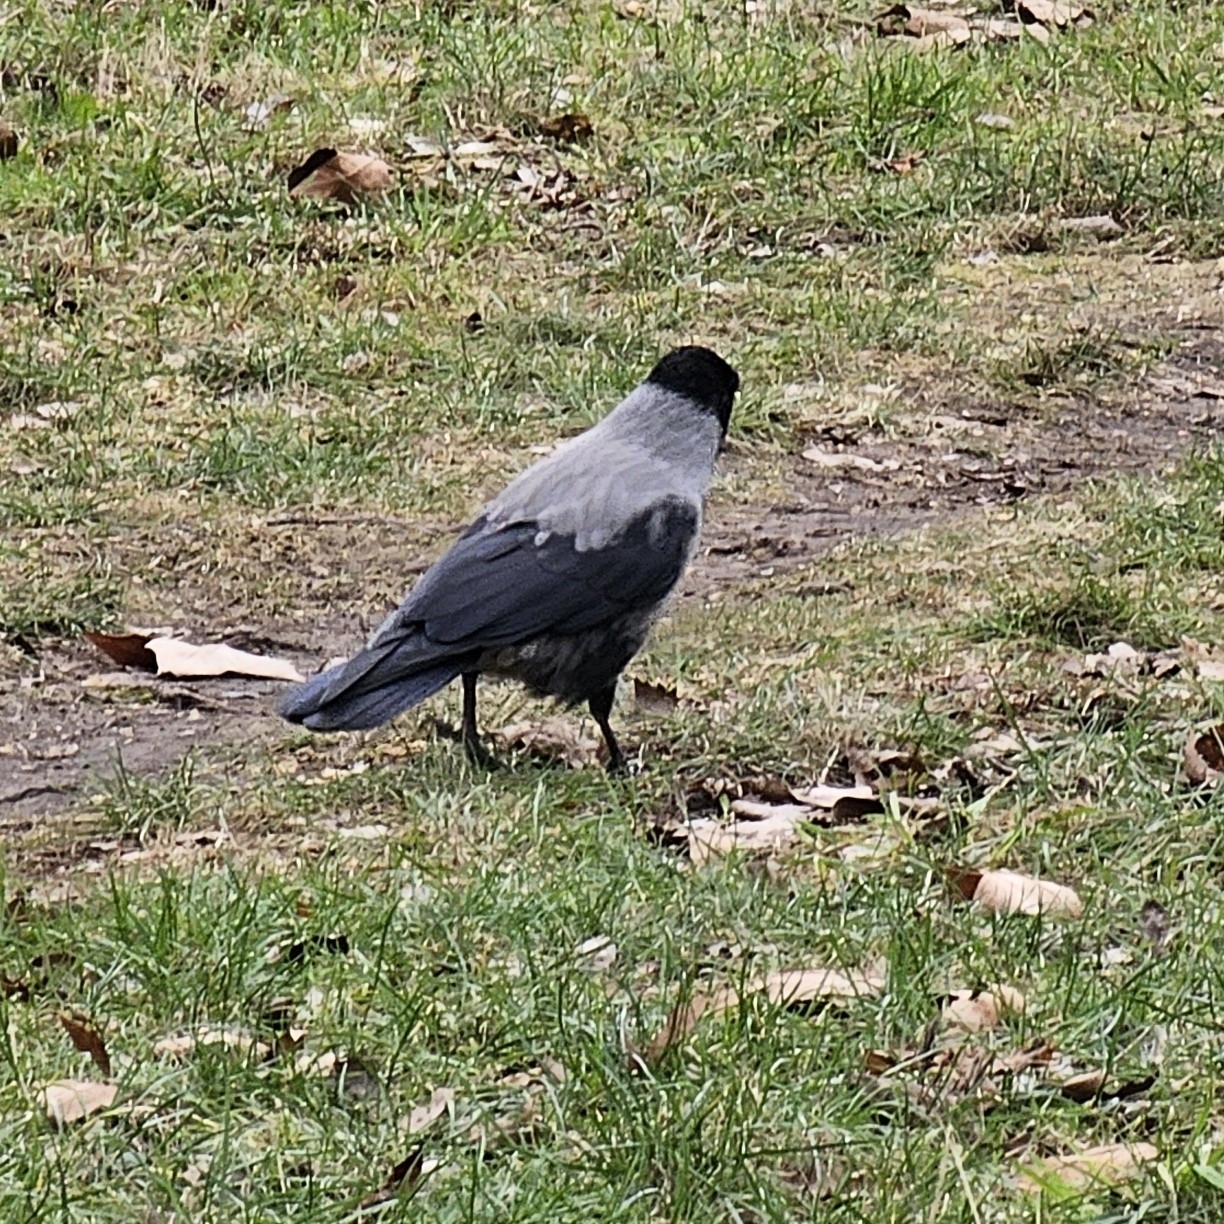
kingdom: Animalia
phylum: Chordata
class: Aves
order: Passeriformes
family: Corvidae
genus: Corvus
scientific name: Corvus
